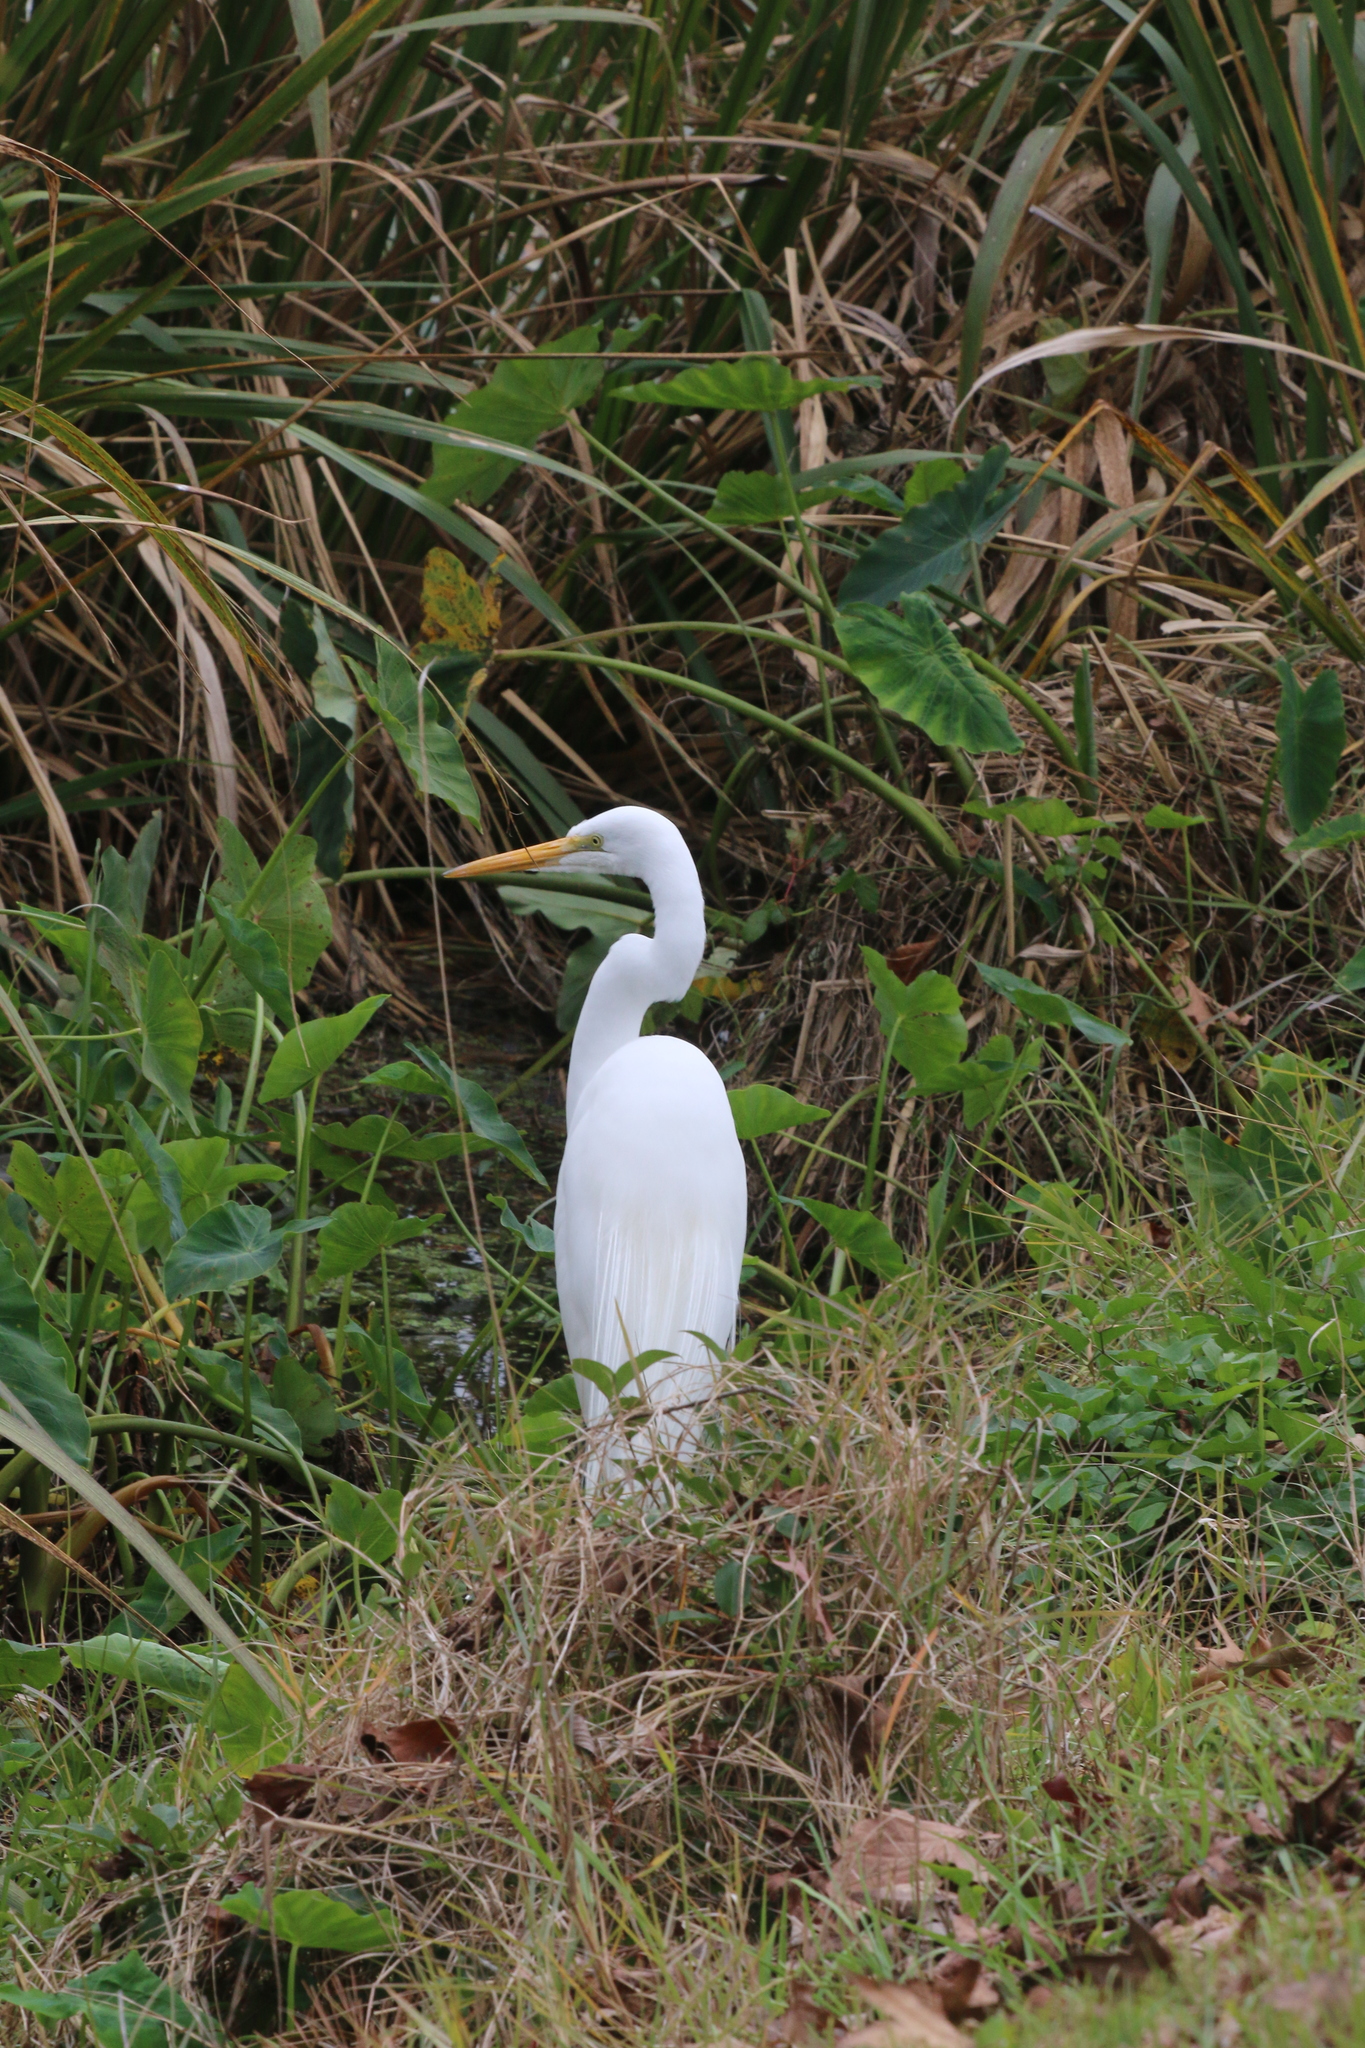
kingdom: Animalia
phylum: Chordata
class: Aves
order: Pelecaniformes
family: Ardeidae
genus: Ardea
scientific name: Ardea alba
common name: Great egret
